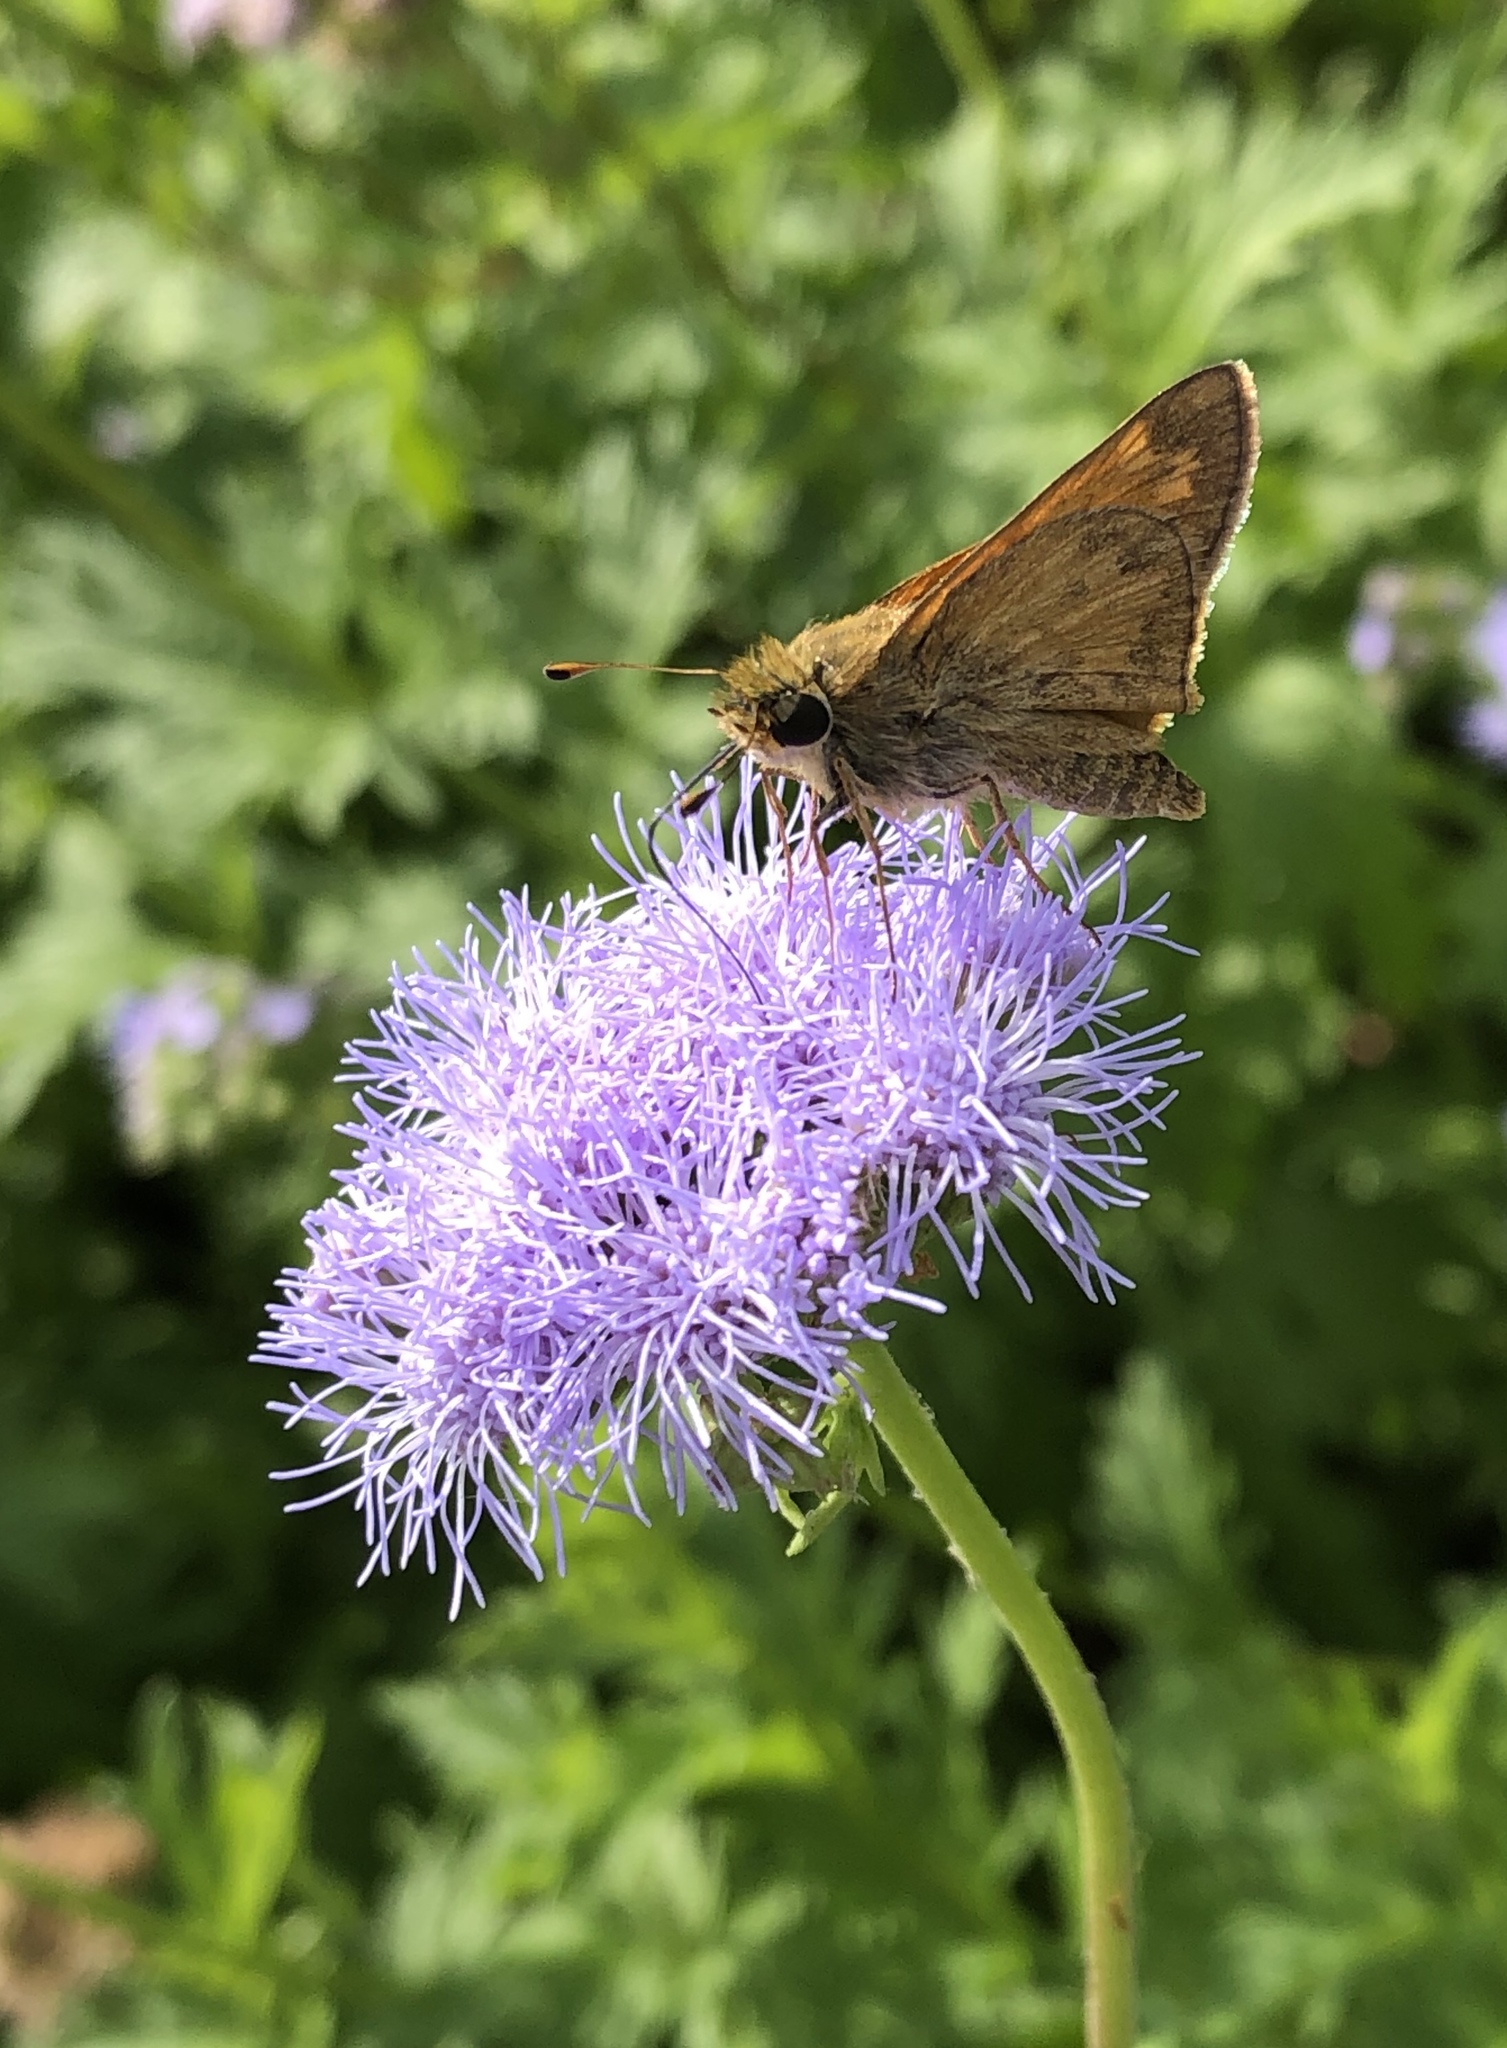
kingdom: Animalia
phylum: Arthropoda
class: Insecta
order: Lepidoptera
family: Hesperiidae
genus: Atalopedes
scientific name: Atalopedes
